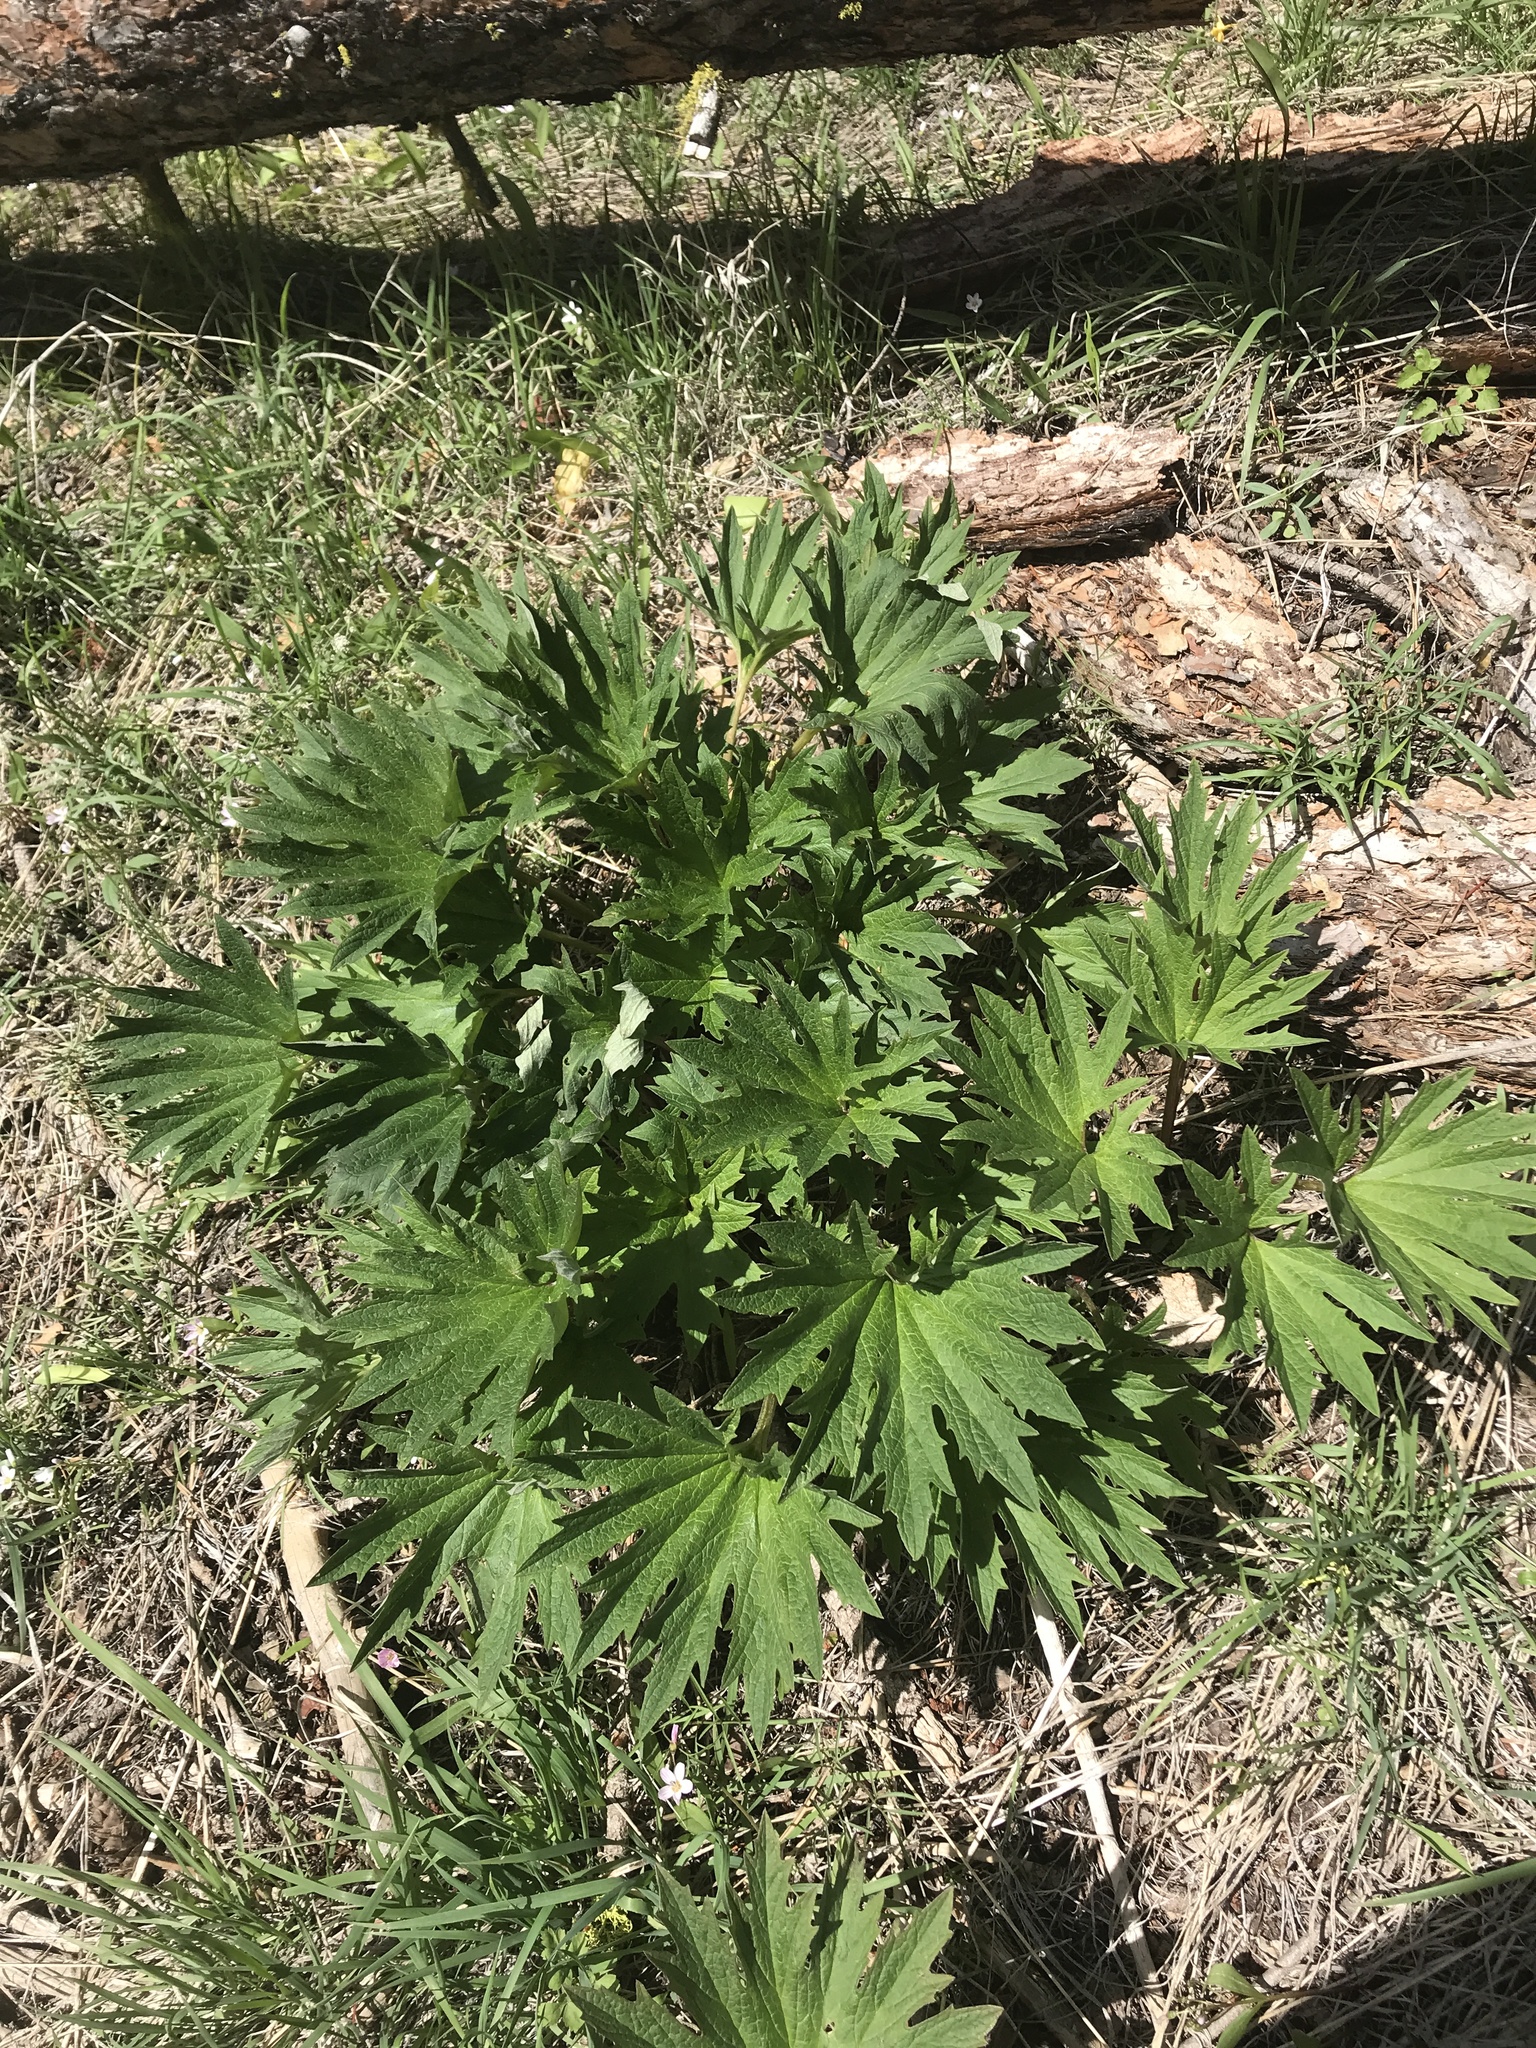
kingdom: Plantae
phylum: Tracheophyta
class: Magnoliopsida
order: Asterales
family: Asteraceae
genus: Cacaliopsis
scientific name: Cacaliopsis nardosmia
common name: Silvercrown
